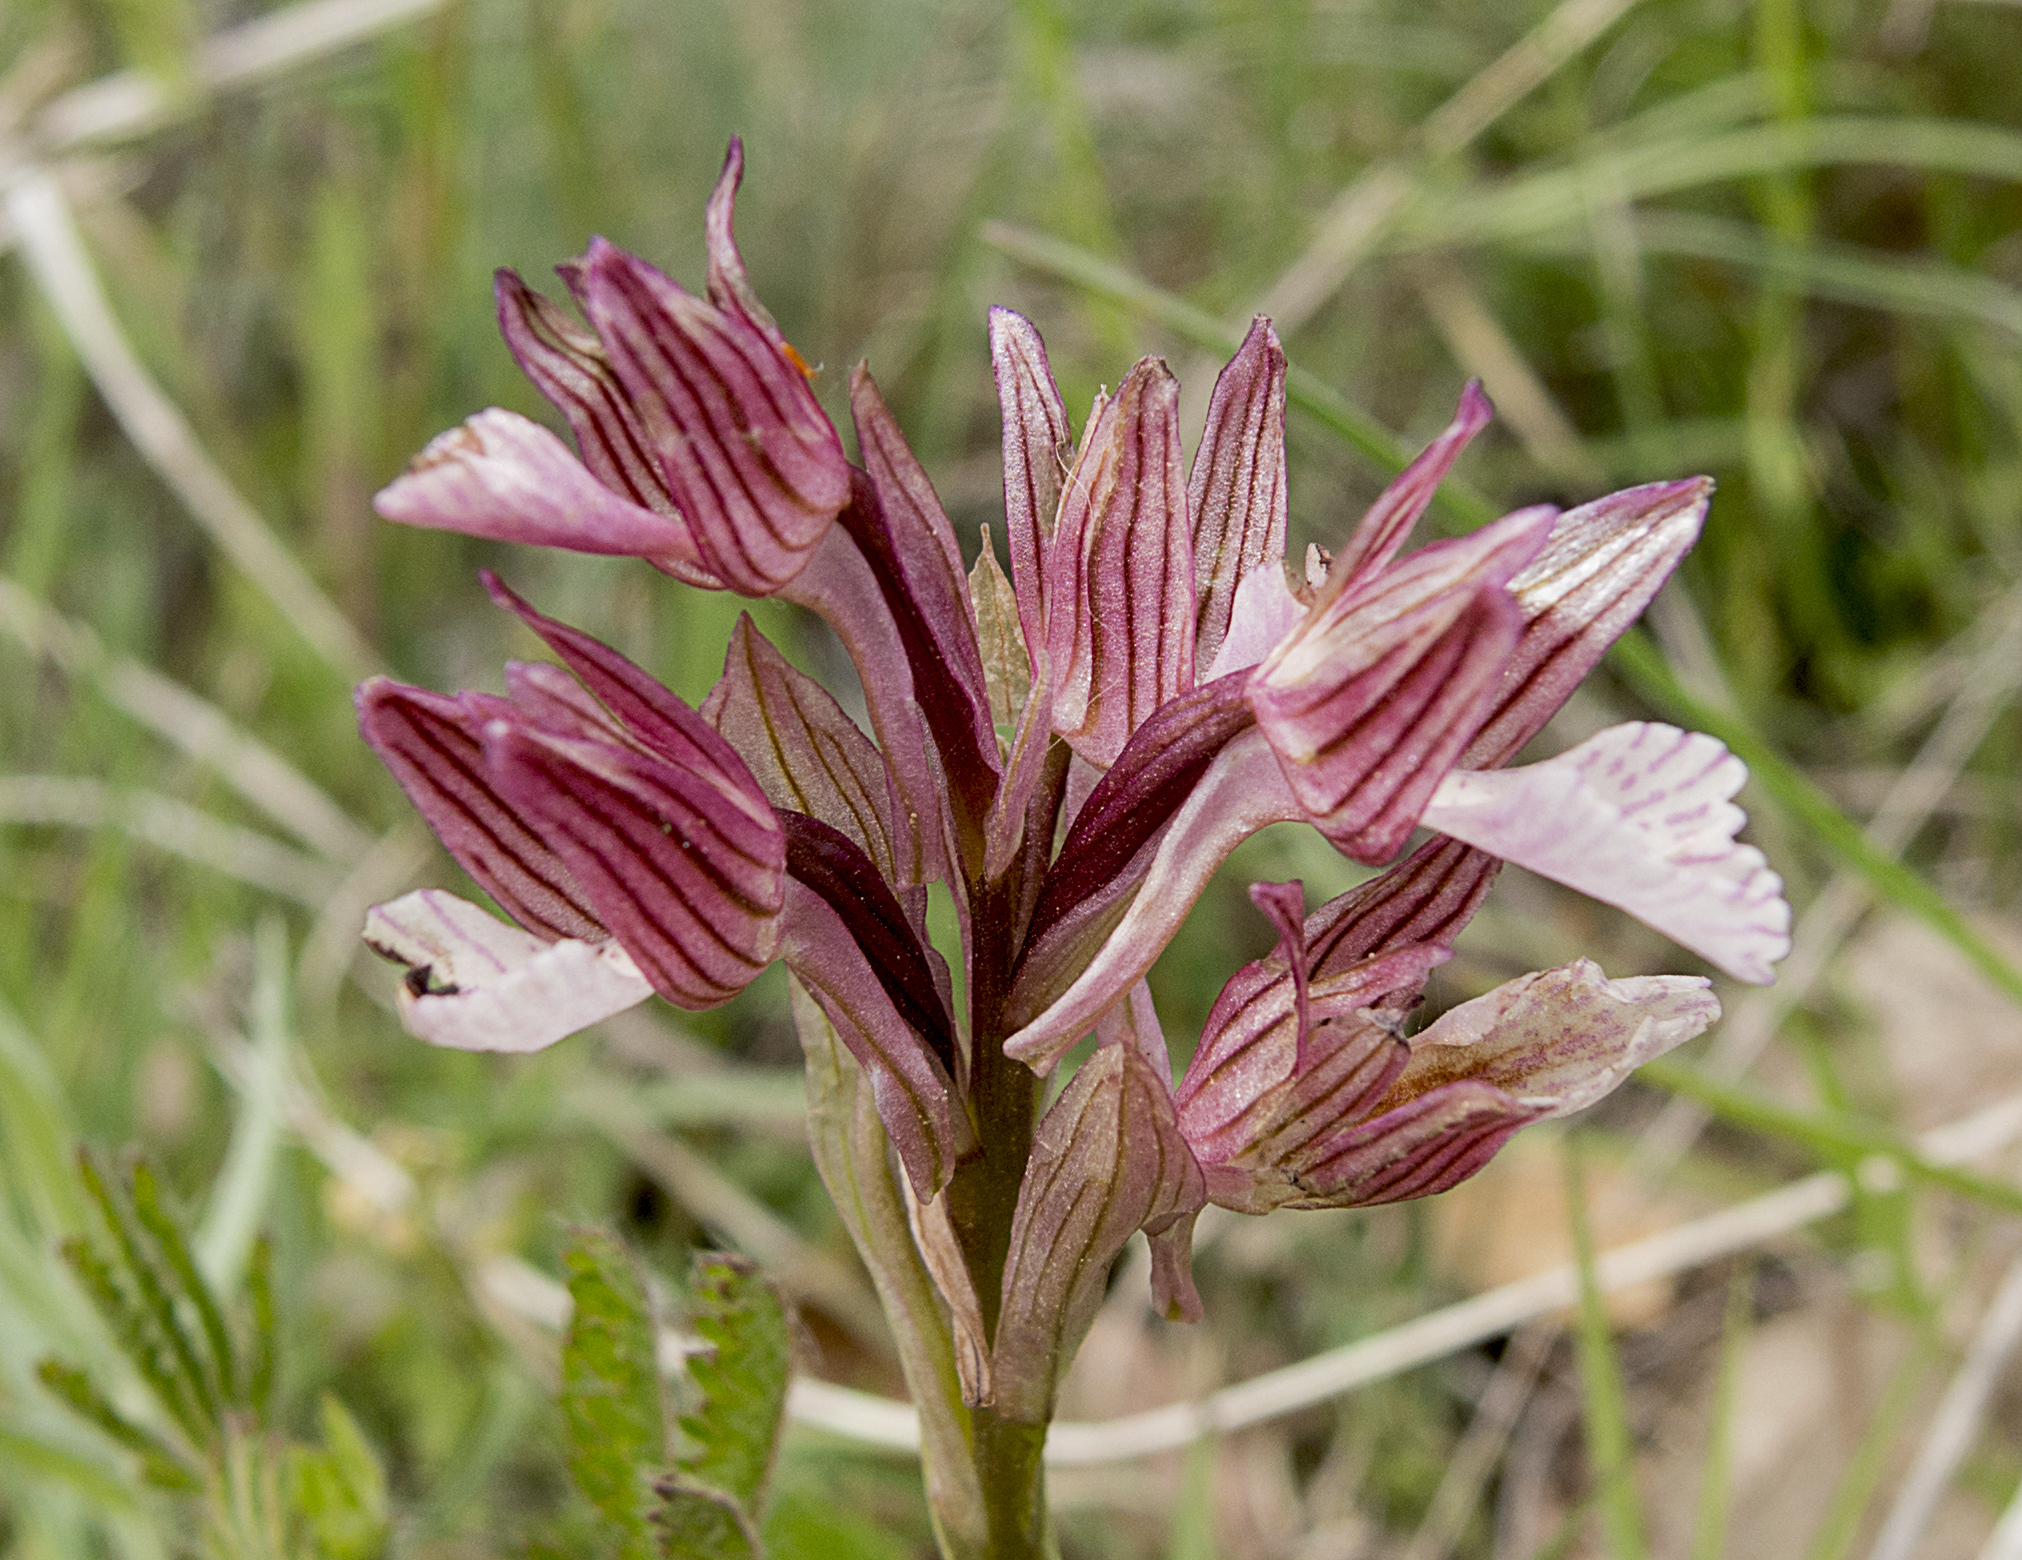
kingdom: Plantae
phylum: Tracheophyta
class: Liliopsida
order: Asparagales
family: Orchidaceae
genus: Anacamptis
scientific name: Anacamptis papilionacea
